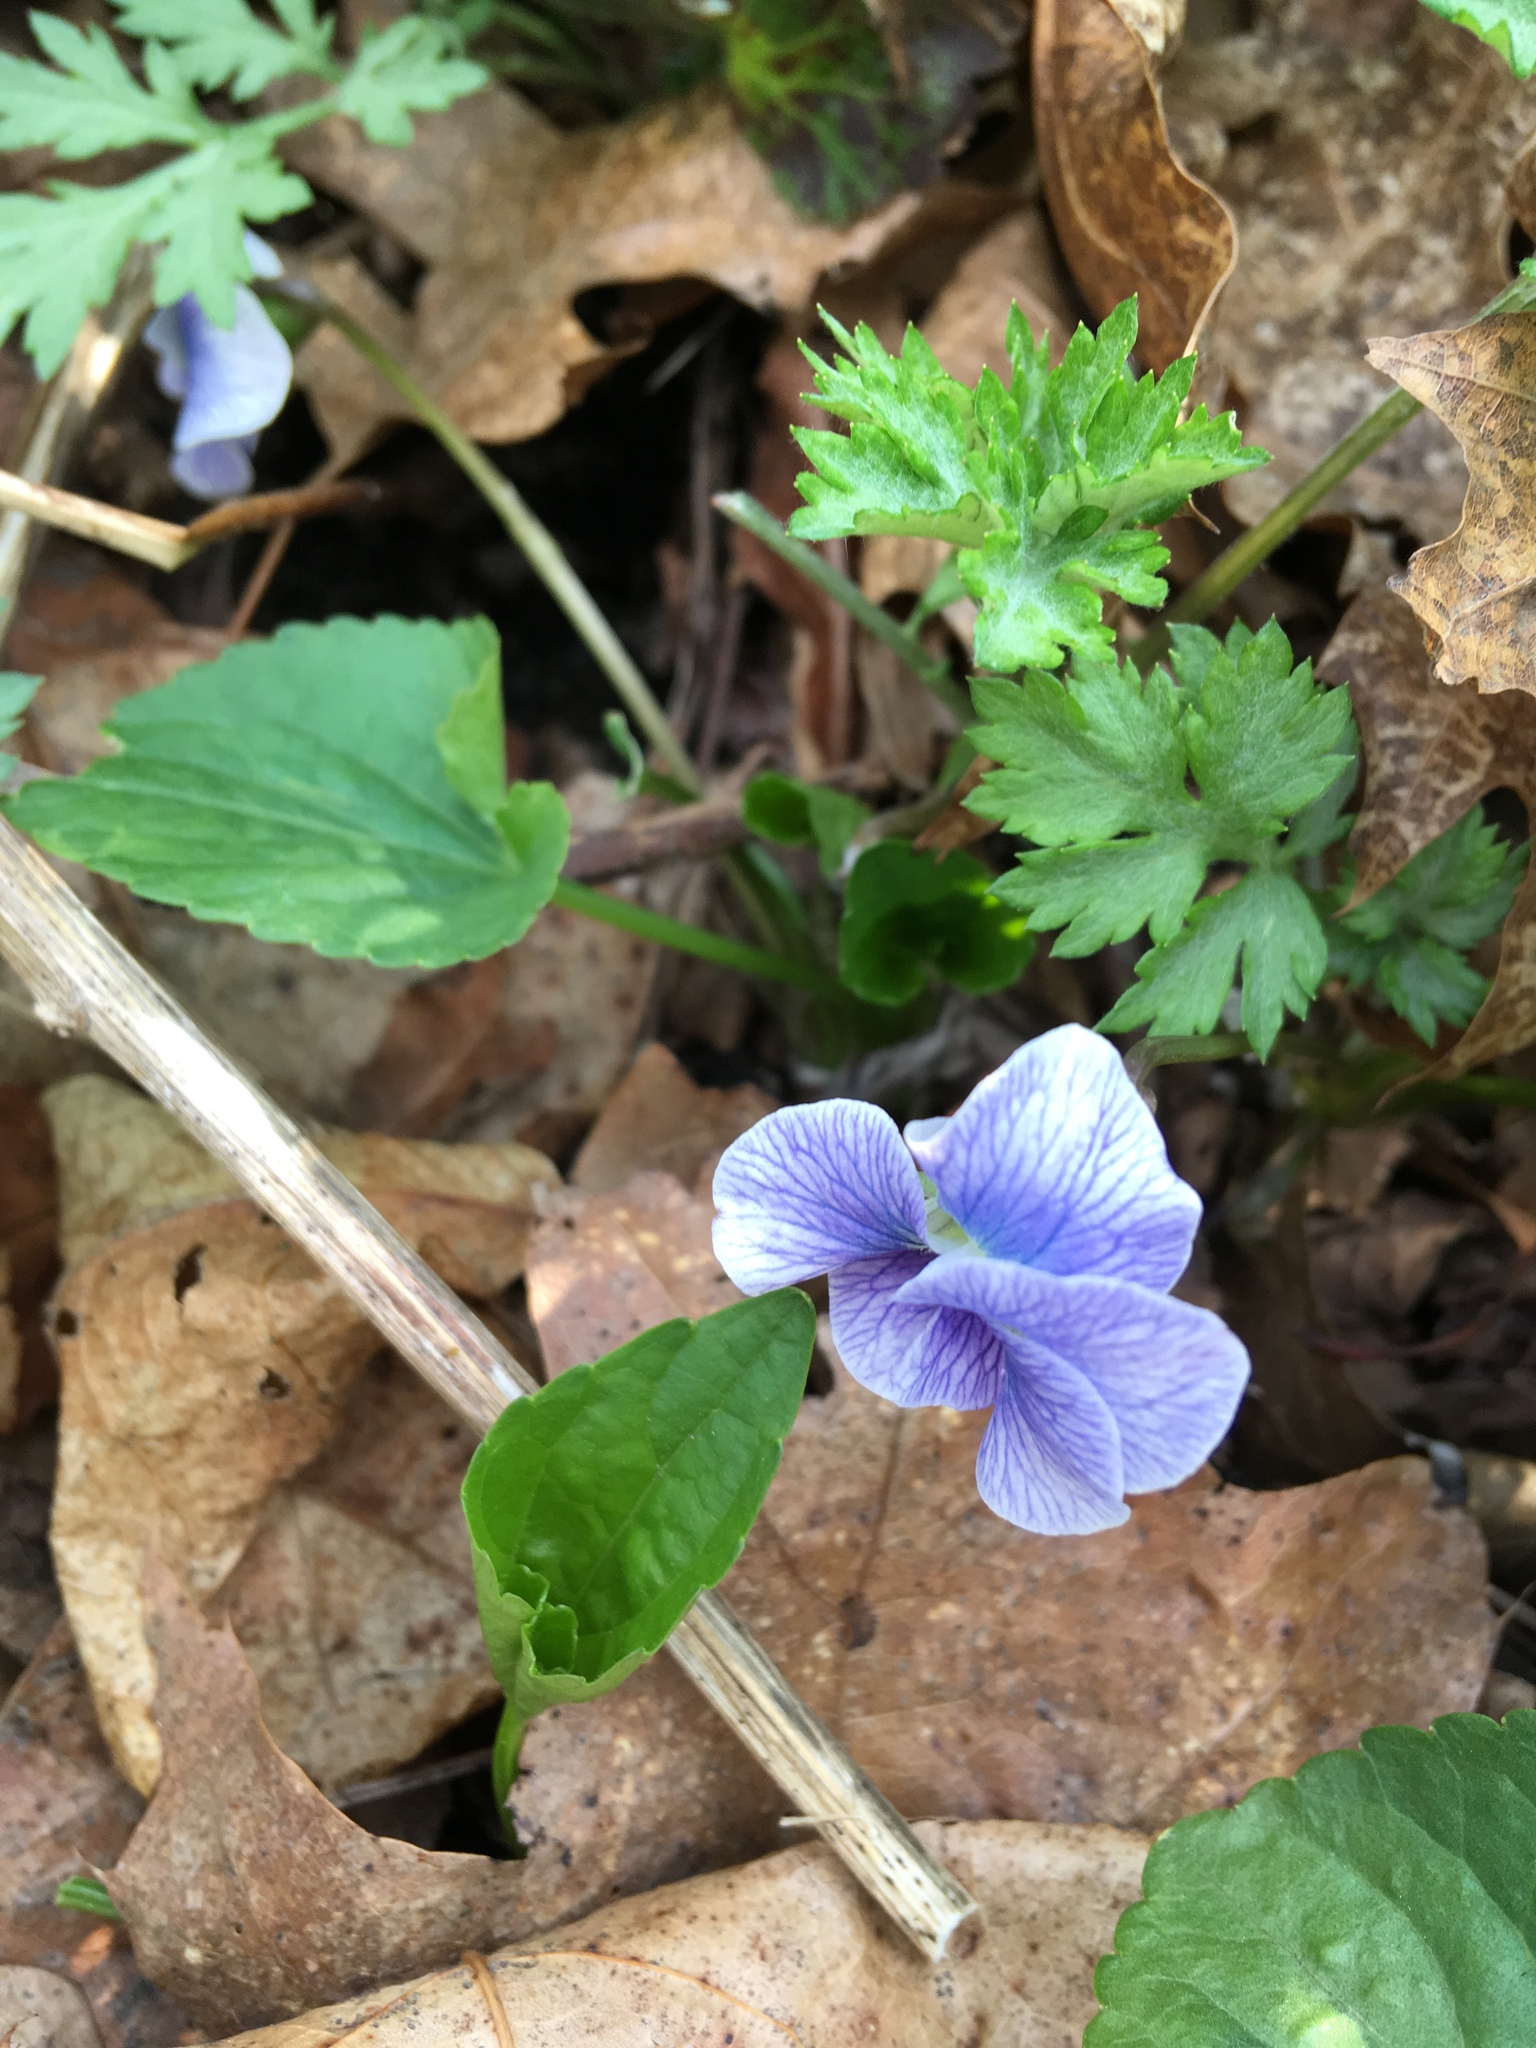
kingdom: Plantae
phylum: Tracheophyta
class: Magnoliopsida
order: Malpighiales
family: Violaceae
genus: Viola
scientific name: Viola sororia
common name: Dooryard violet
